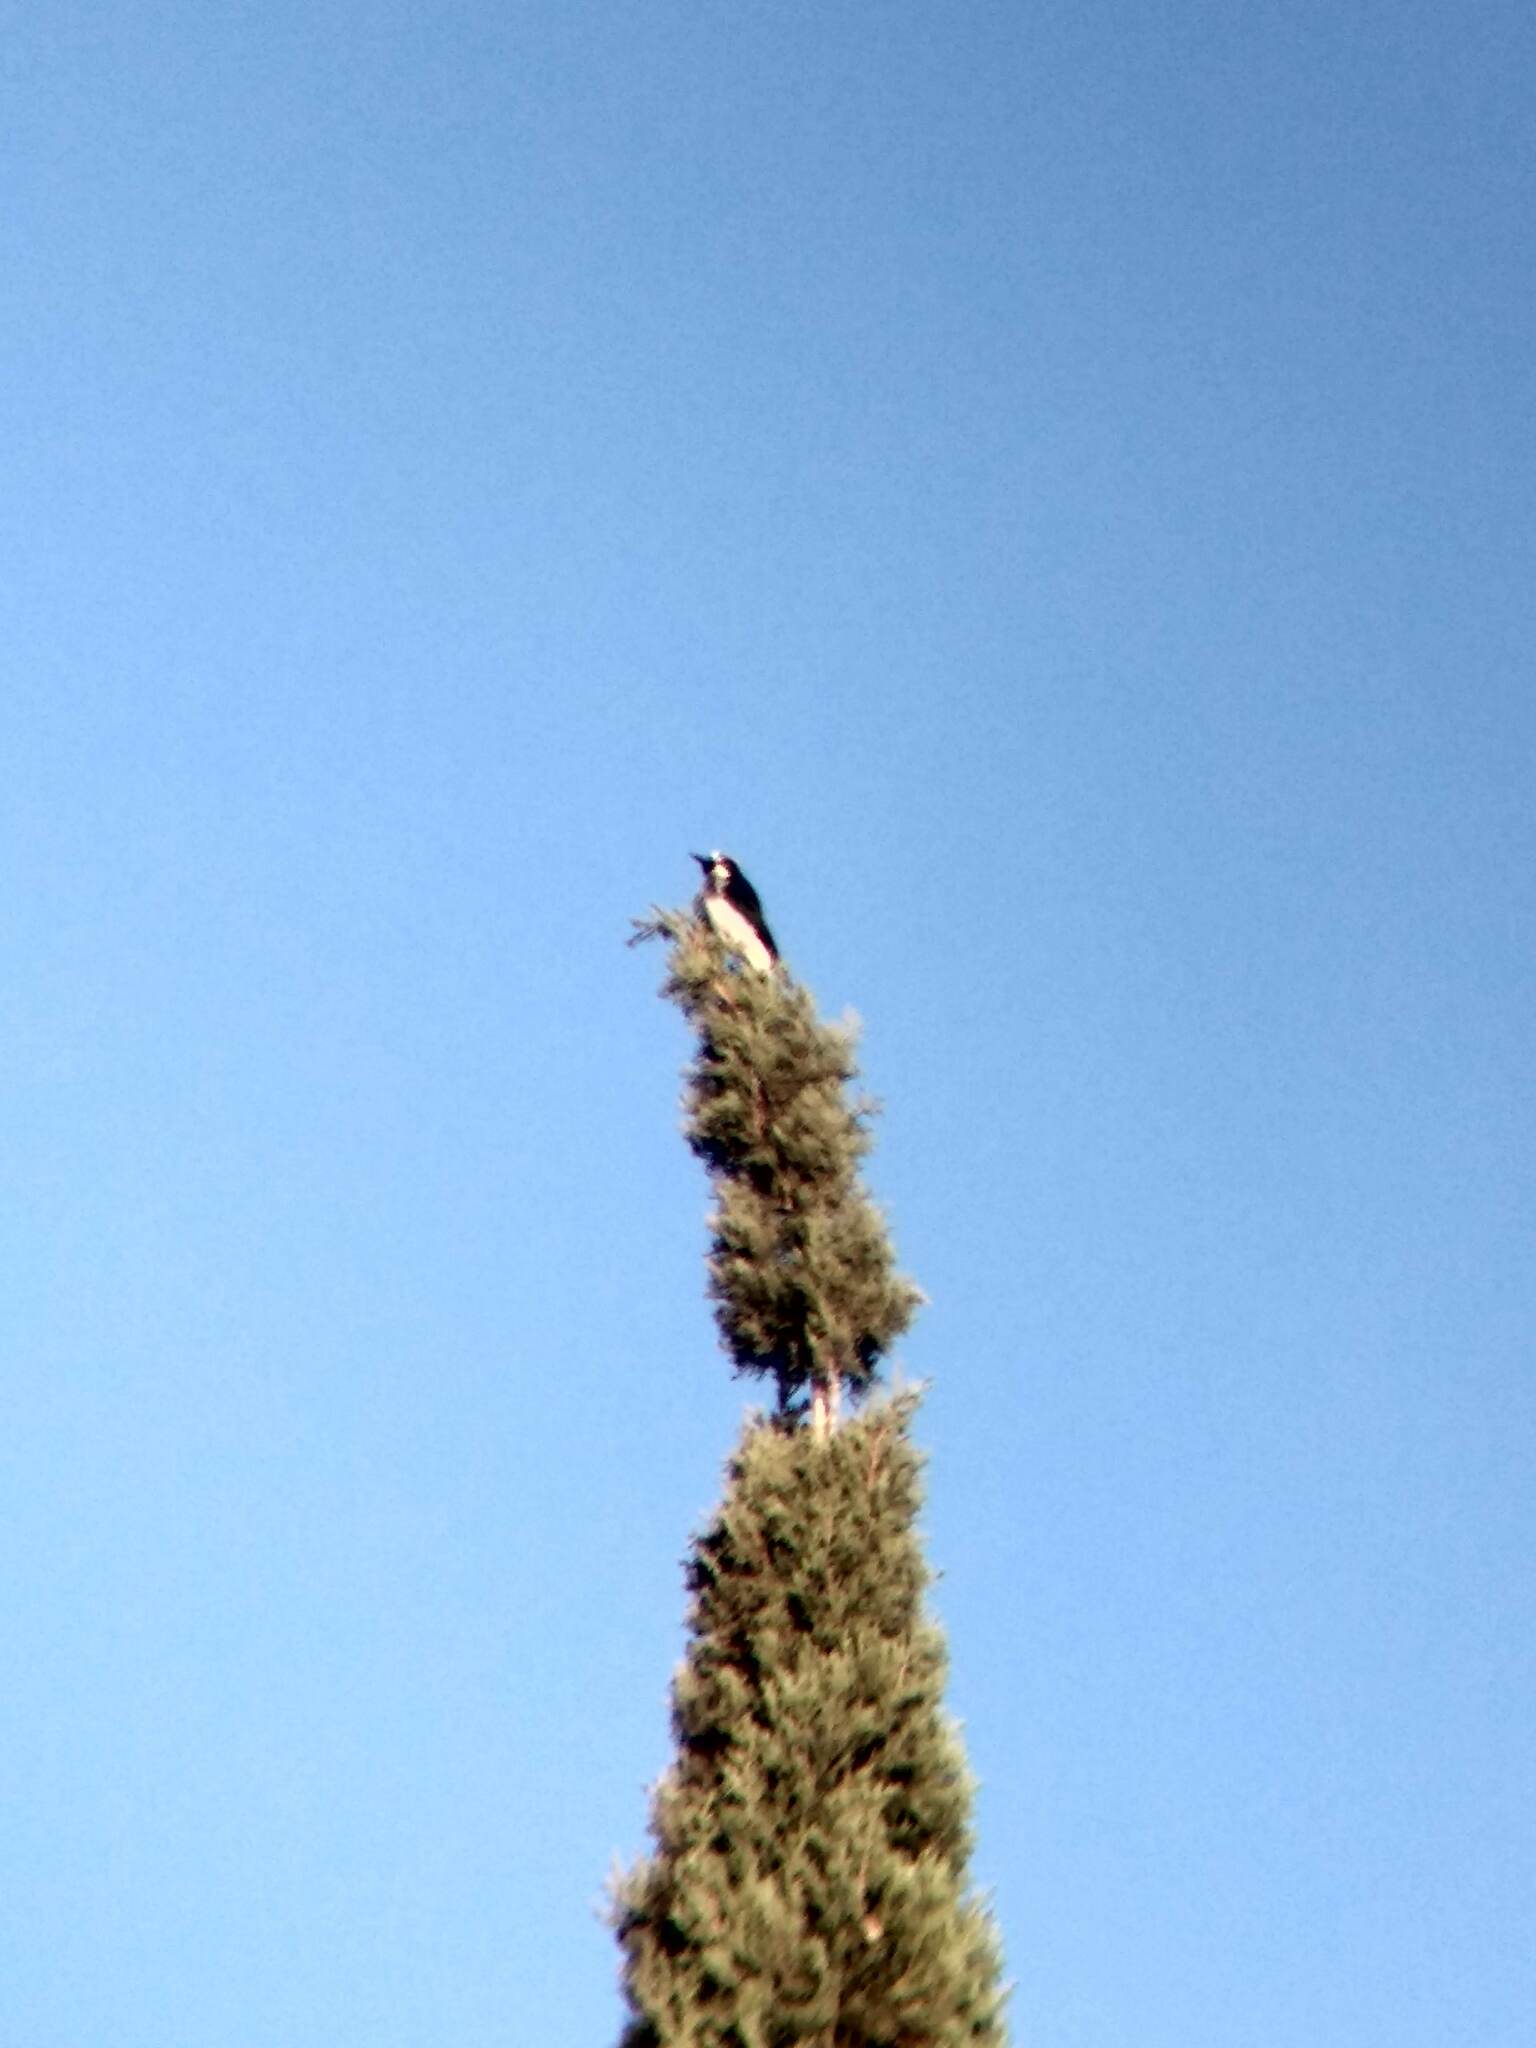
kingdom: Animalia
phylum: Chordata
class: Aves
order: Piciformes
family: Picidae
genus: Melanerpes
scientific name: Melanerpes formicivorus
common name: Acorn woodpecker
